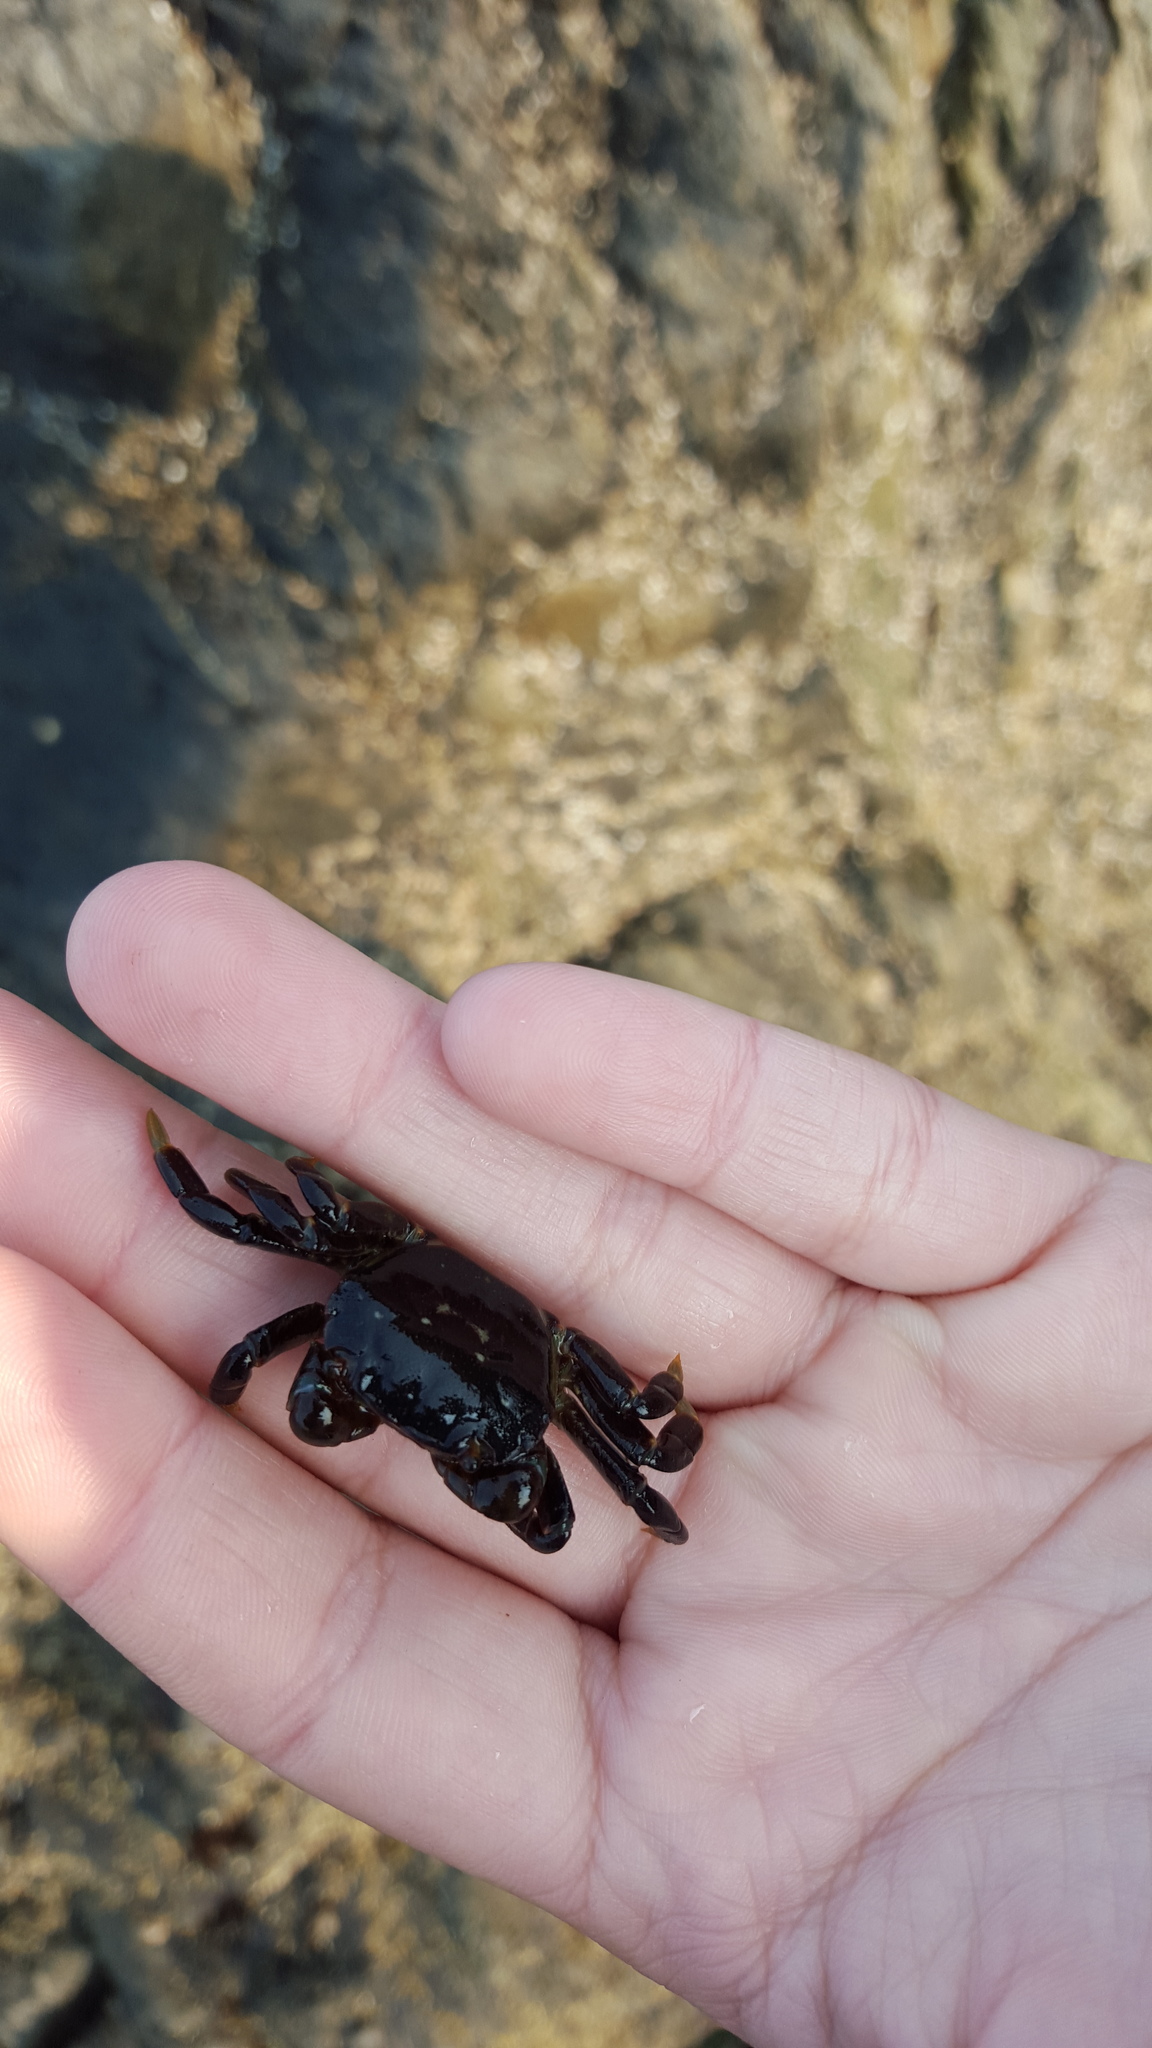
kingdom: Animalia
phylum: Arthropoda
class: Malacostraca
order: Decapoda
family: Varunidae
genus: Hemigrapsus
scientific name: Hemigrapsus nudus
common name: Purple shore crab
